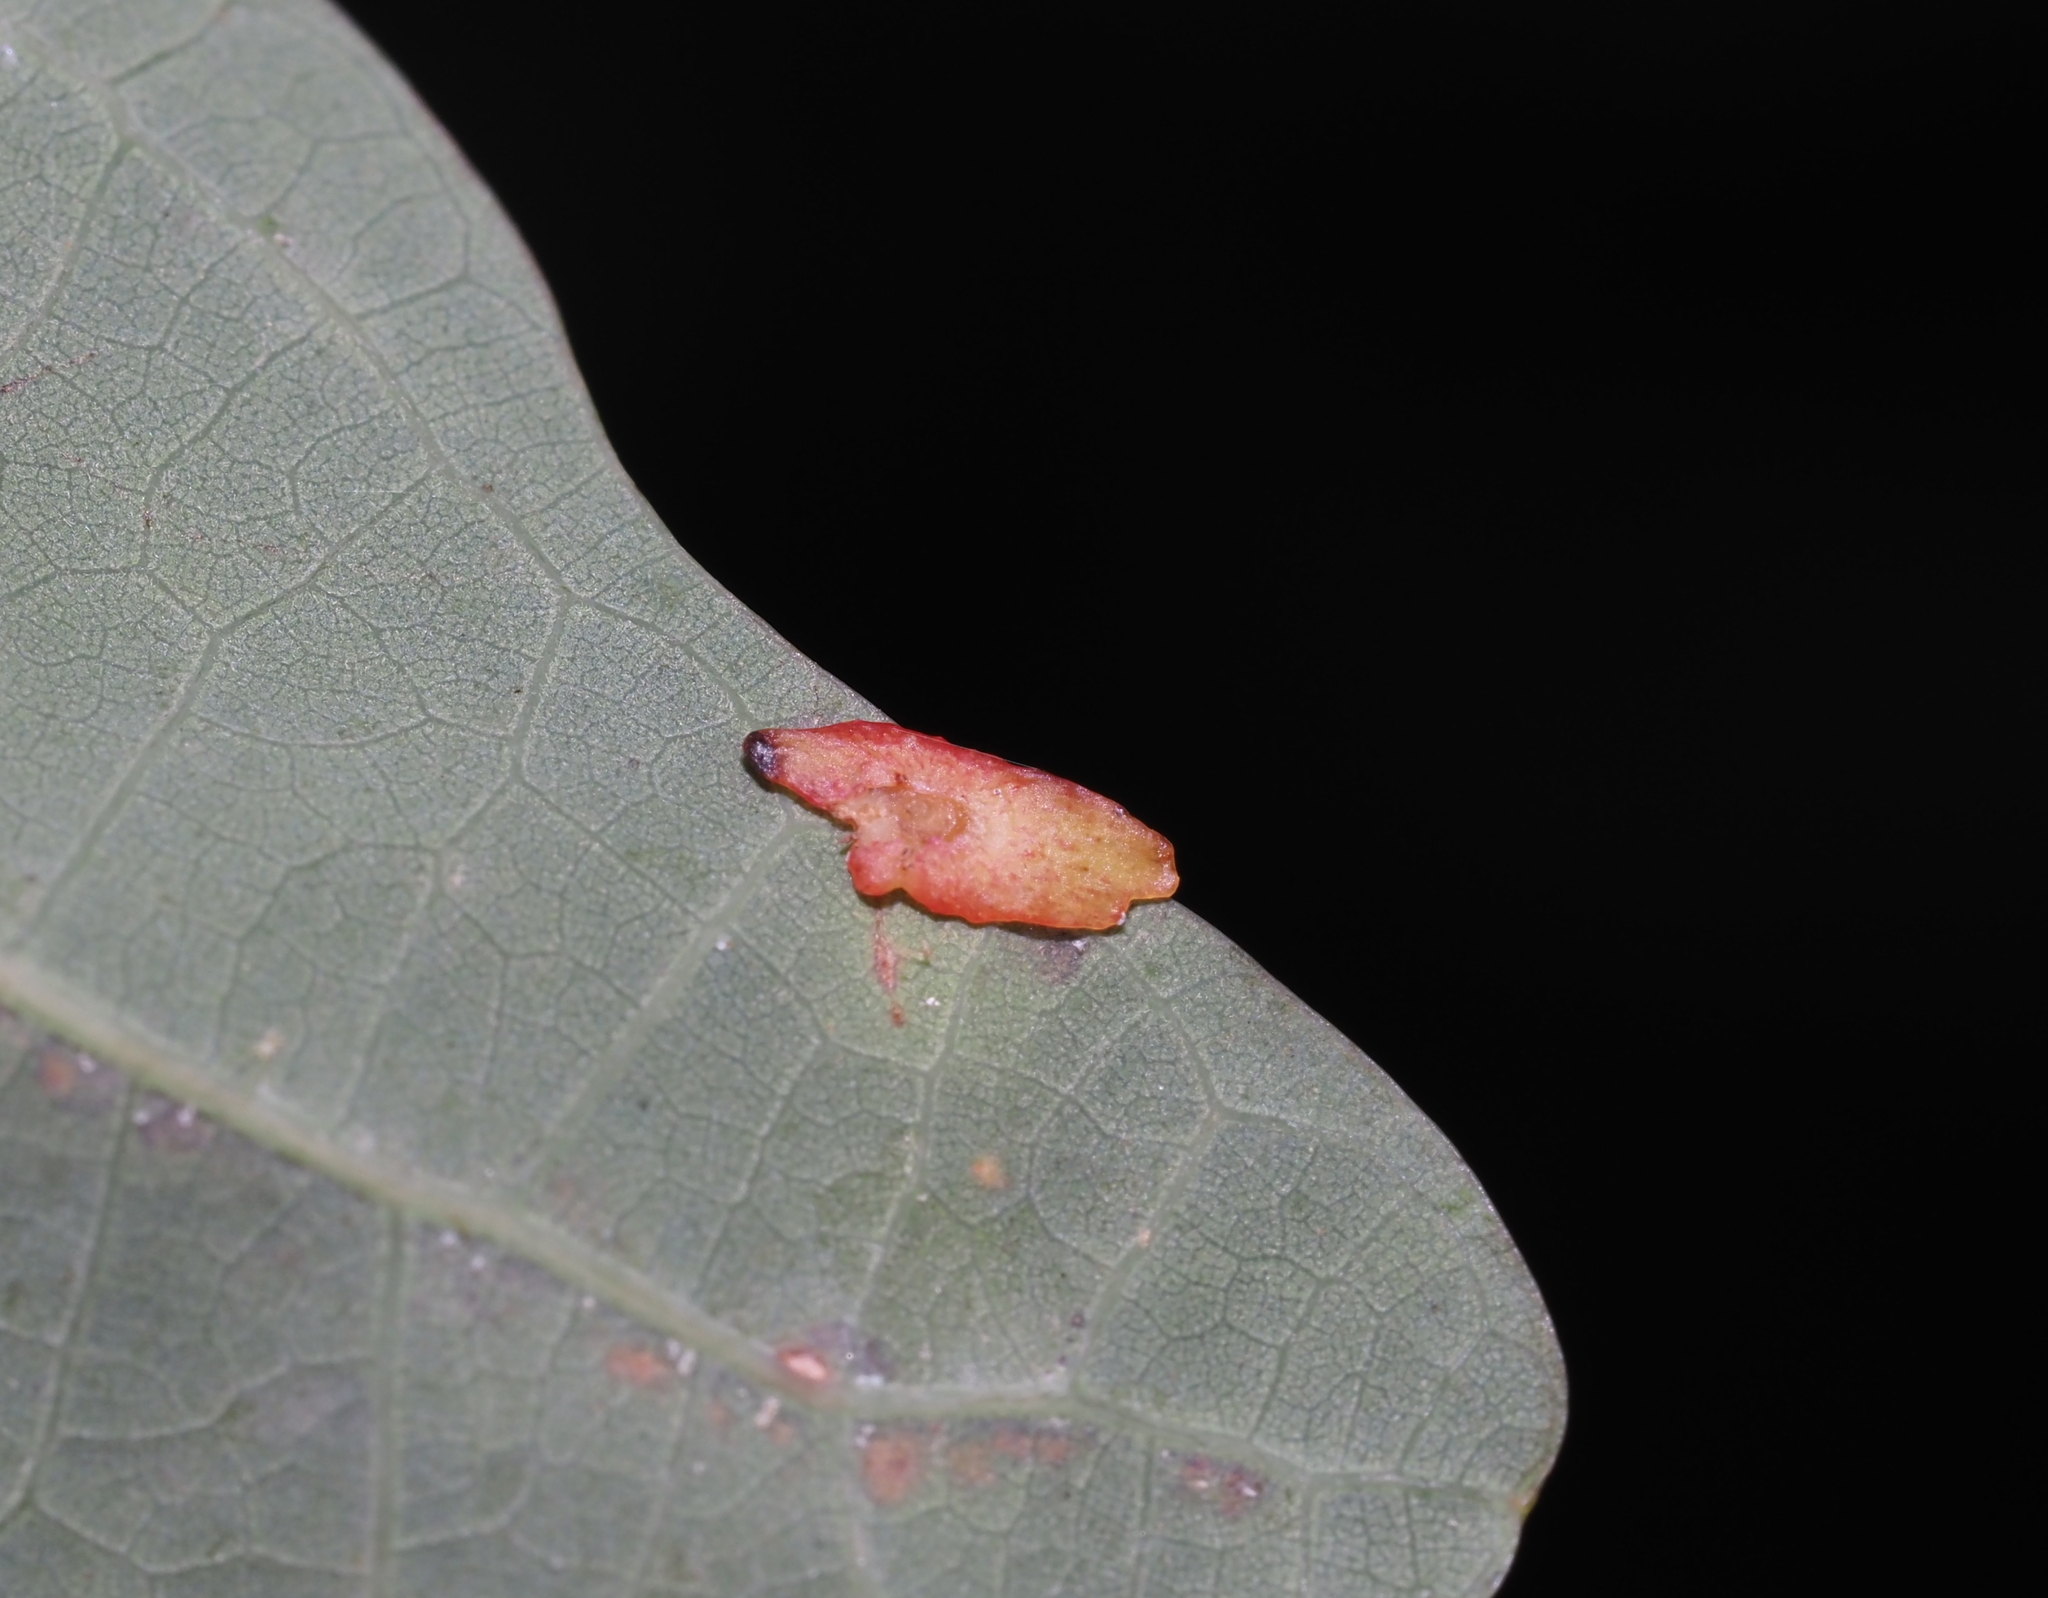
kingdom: Animalia
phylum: Arthropoda
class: Insecta
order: Hymenoptera
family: Cynipidae
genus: Phylloteras
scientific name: Phylloteras
